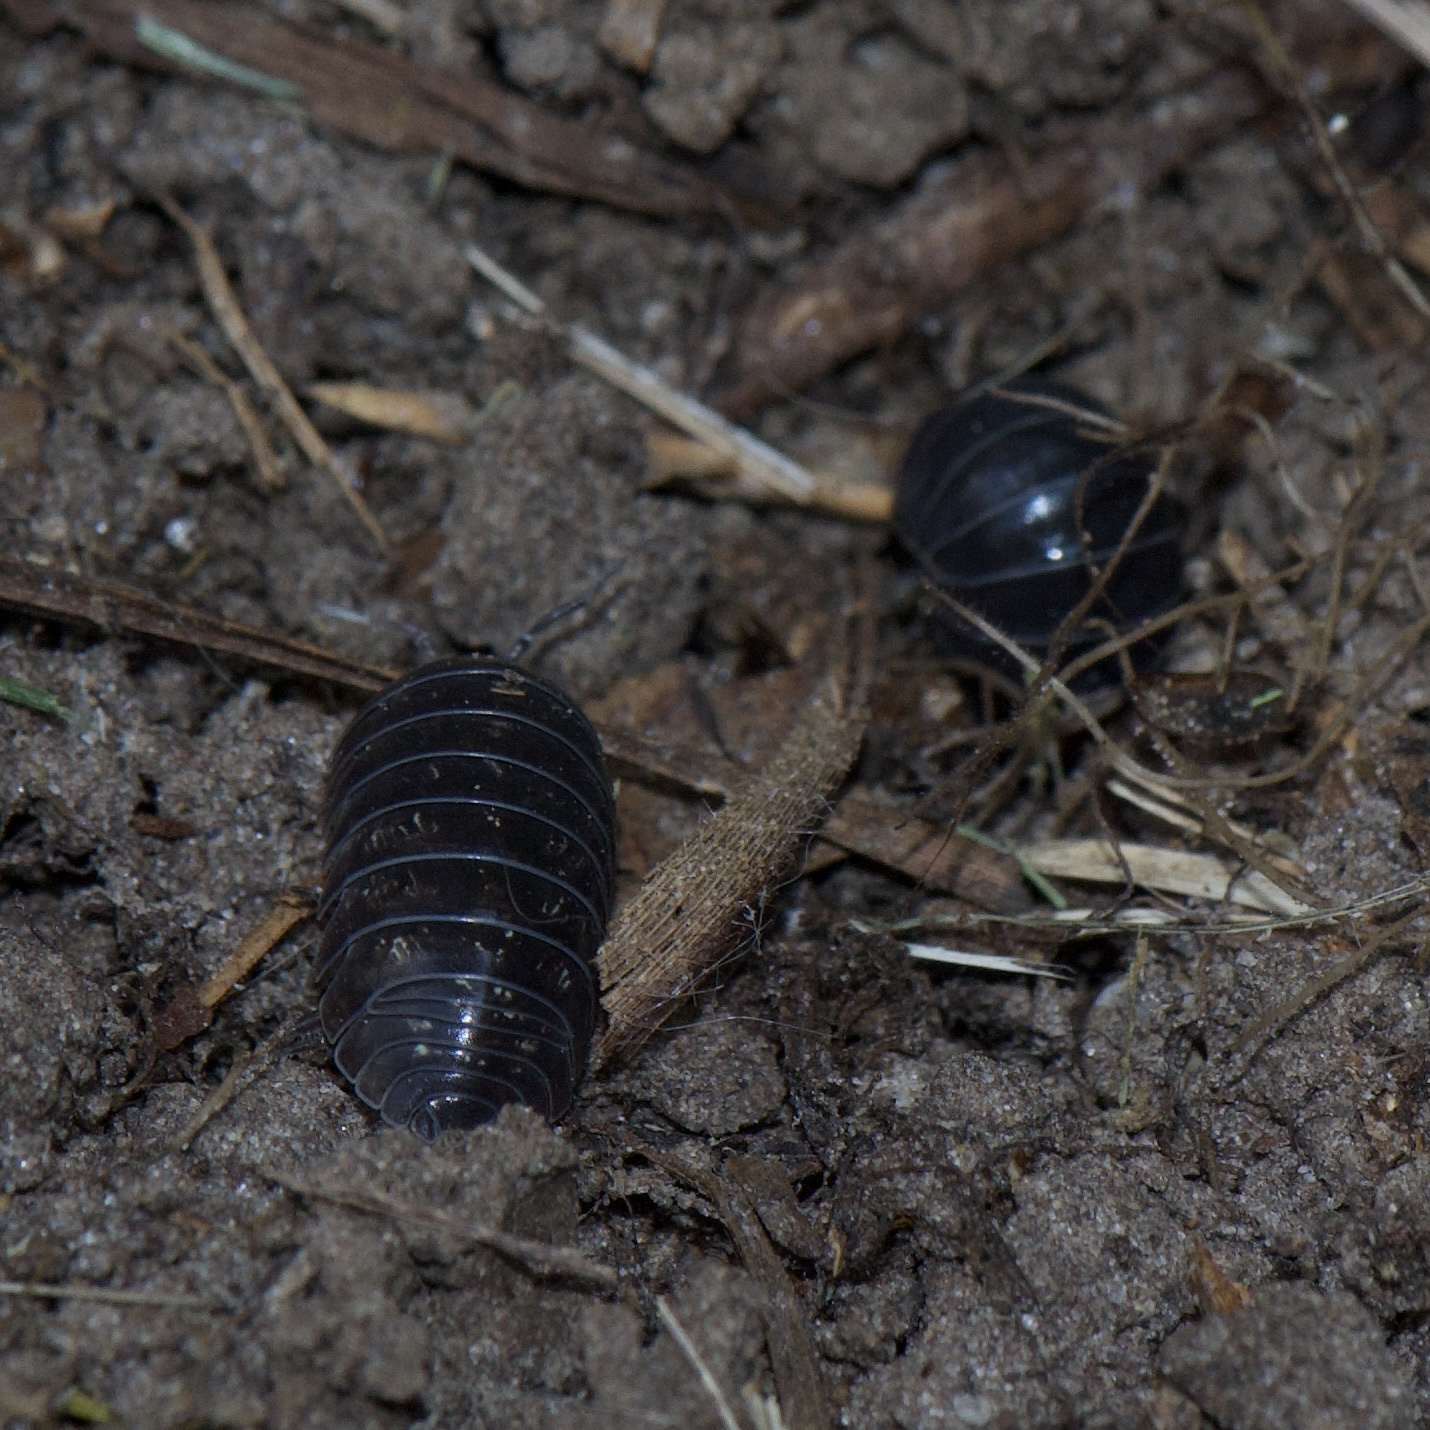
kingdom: Animalia
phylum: Arthropoda
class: Malacostraca
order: Isopoda
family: Armadillidiidae
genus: Armadillidium
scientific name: Armadillidium vulgare
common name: Common pill woodlouse
